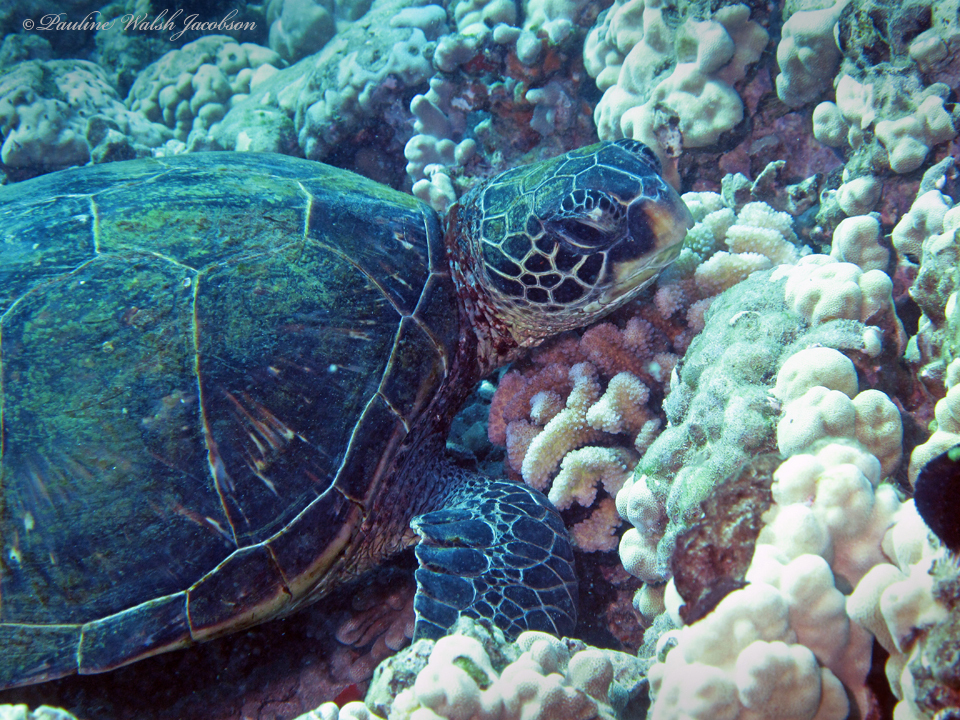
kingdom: Animalia
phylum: Chordata
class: Testudines
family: Cheloniidae
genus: Chelonia
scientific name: Chelonia mydas
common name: Green turtle
